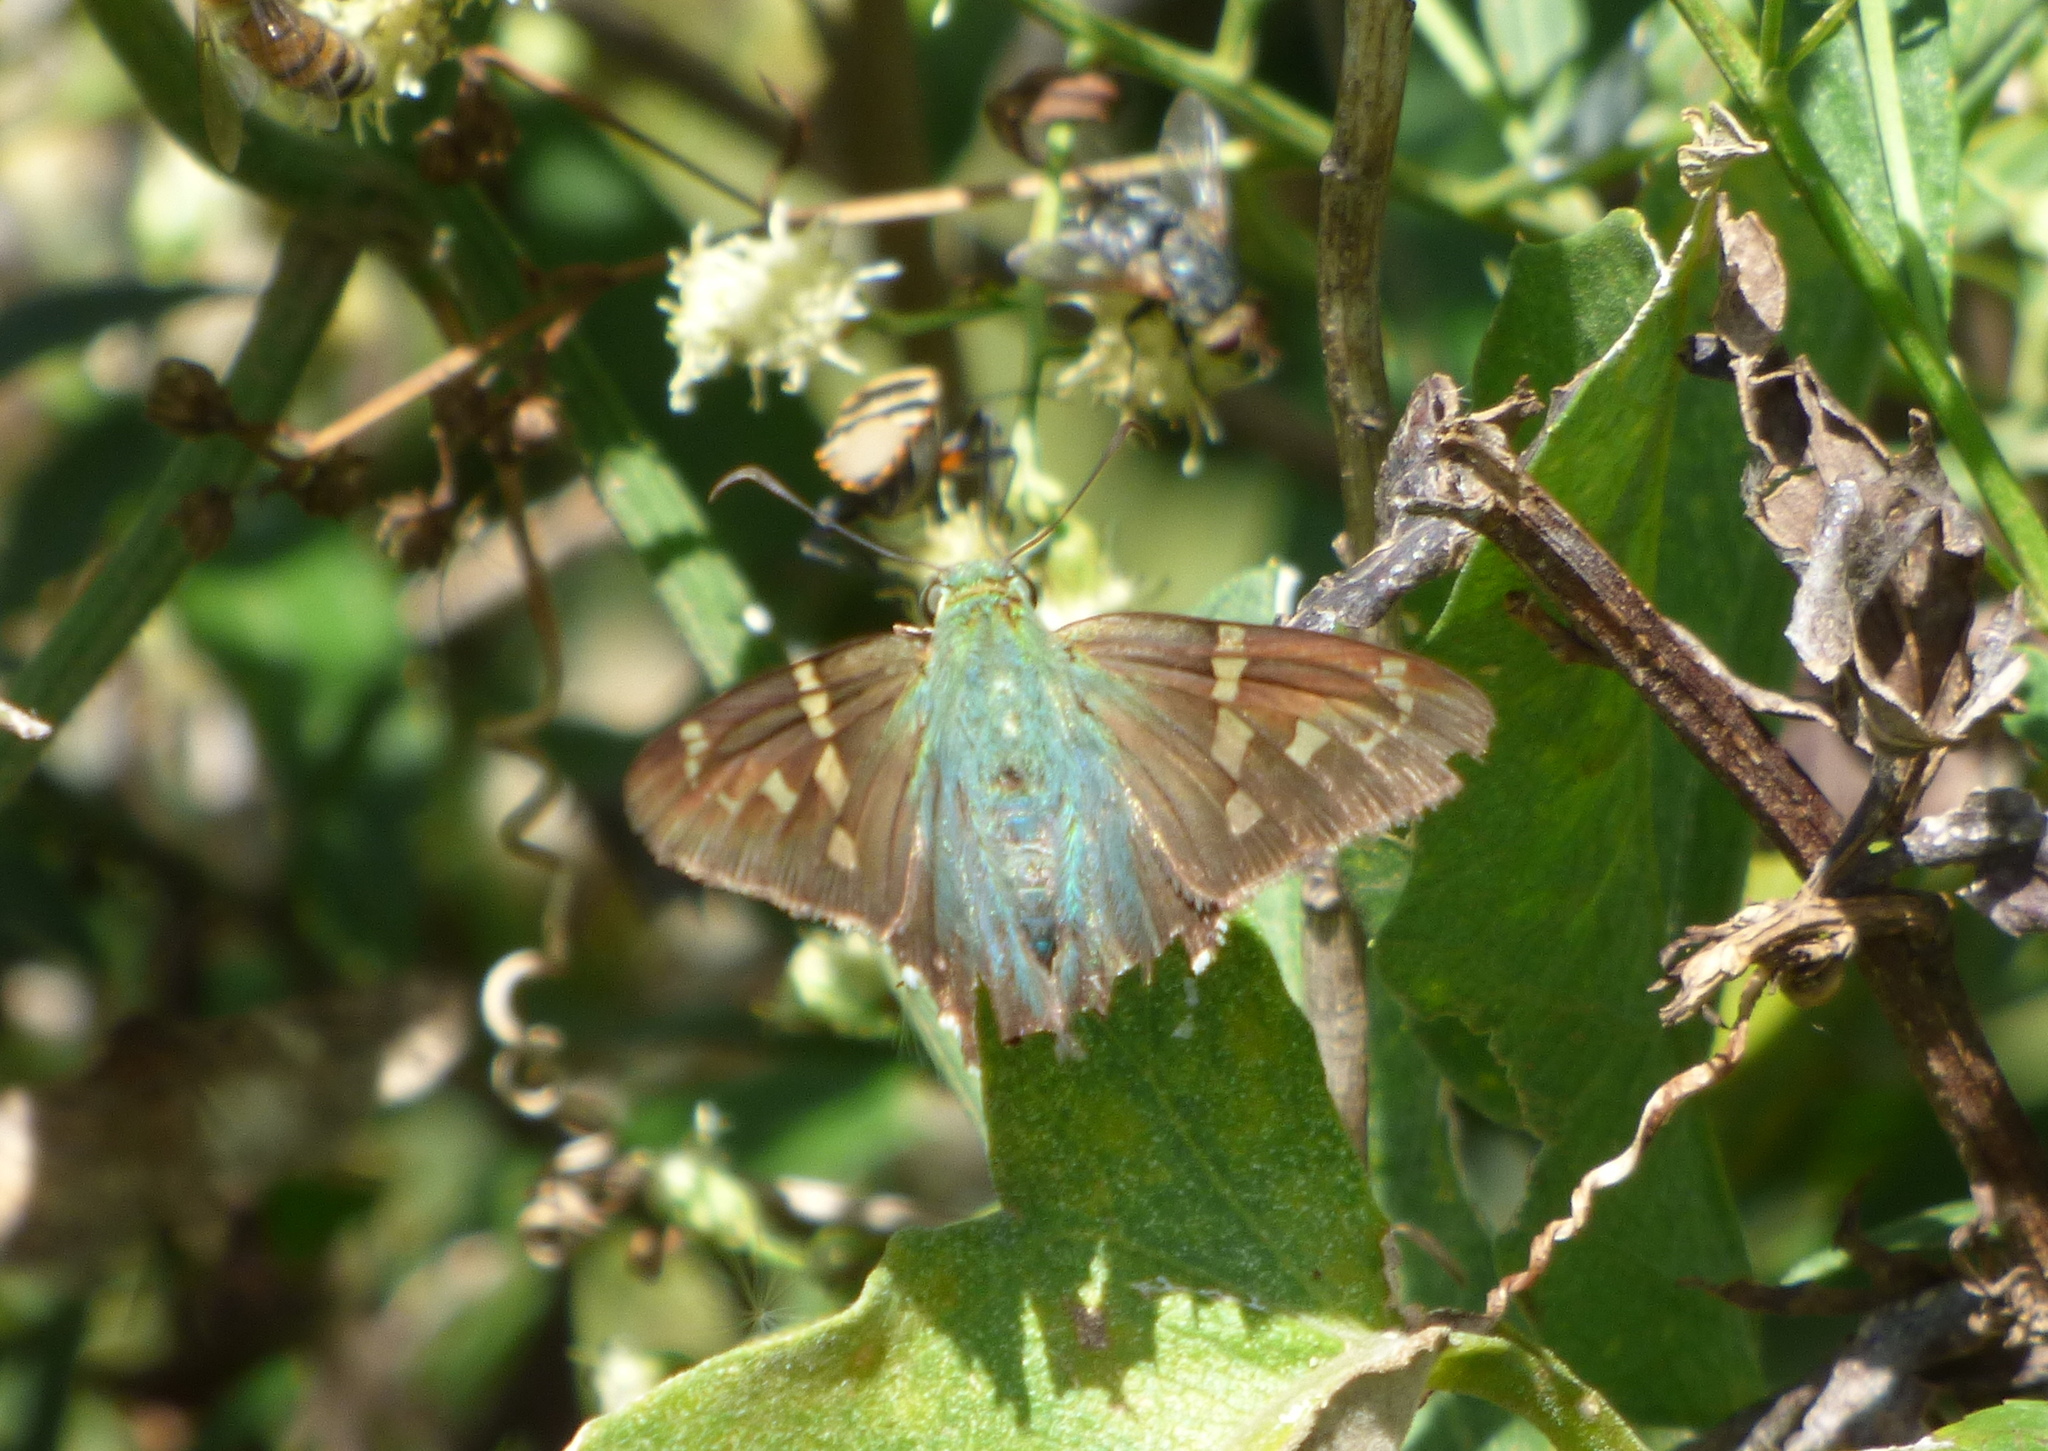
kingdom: Animalia
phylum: Arthropoda
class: Insecta
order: Lepidoptera
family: Hesperiidae
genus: Urbanus
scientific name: Urbanus proteus
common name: Long-tailed skipper
